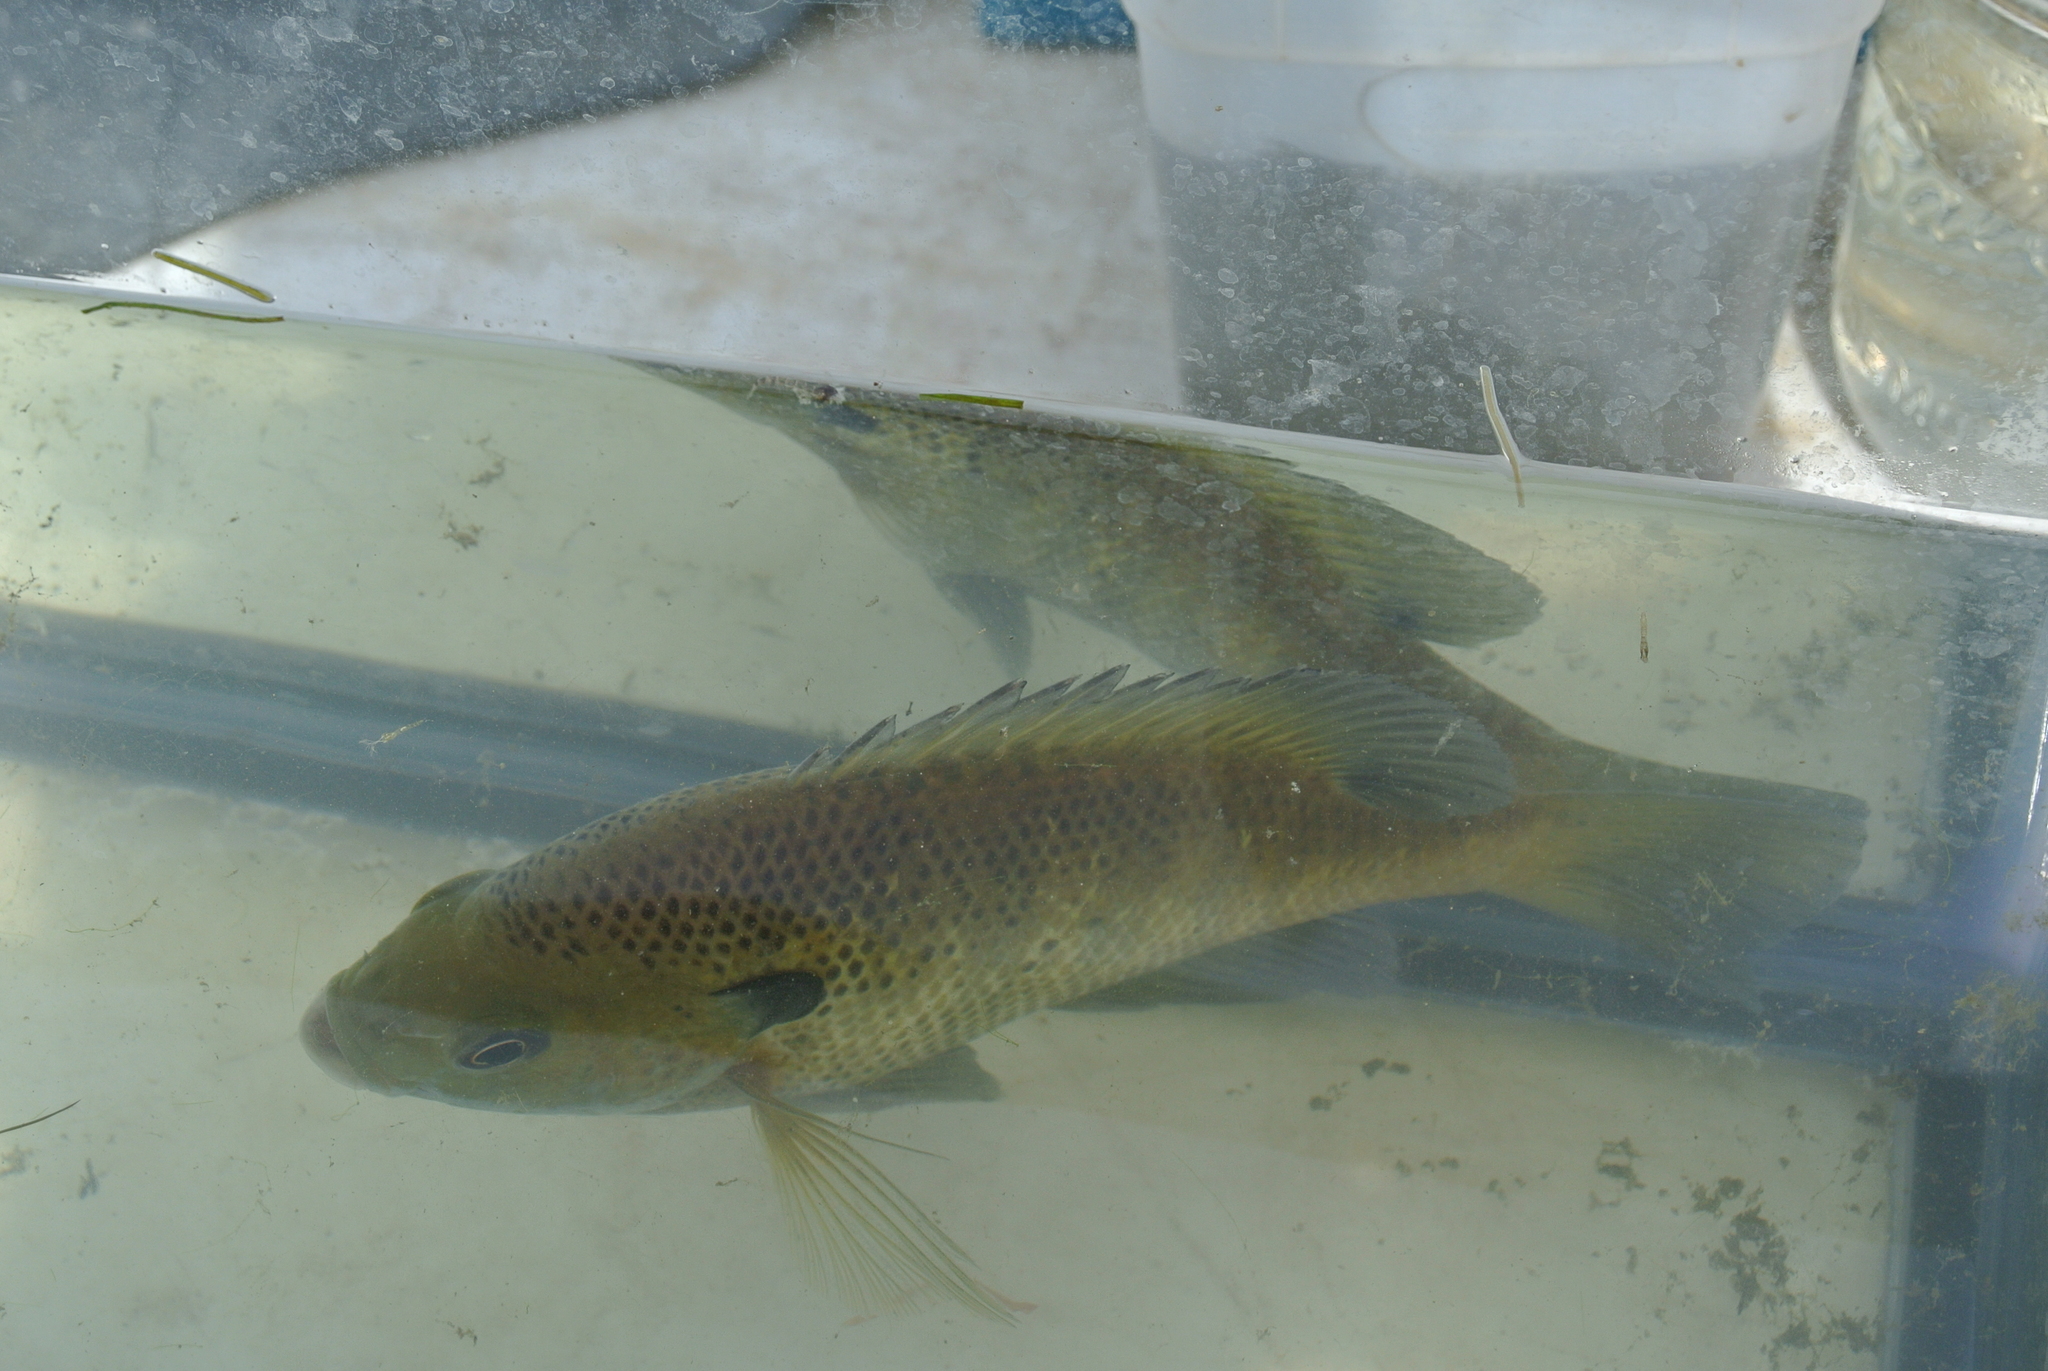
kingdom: Animalia
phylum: Chordata
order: Perciformes
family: Centrarchidae
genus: Lepomis
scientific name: Lepomis macrochirus
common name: Bluegill
